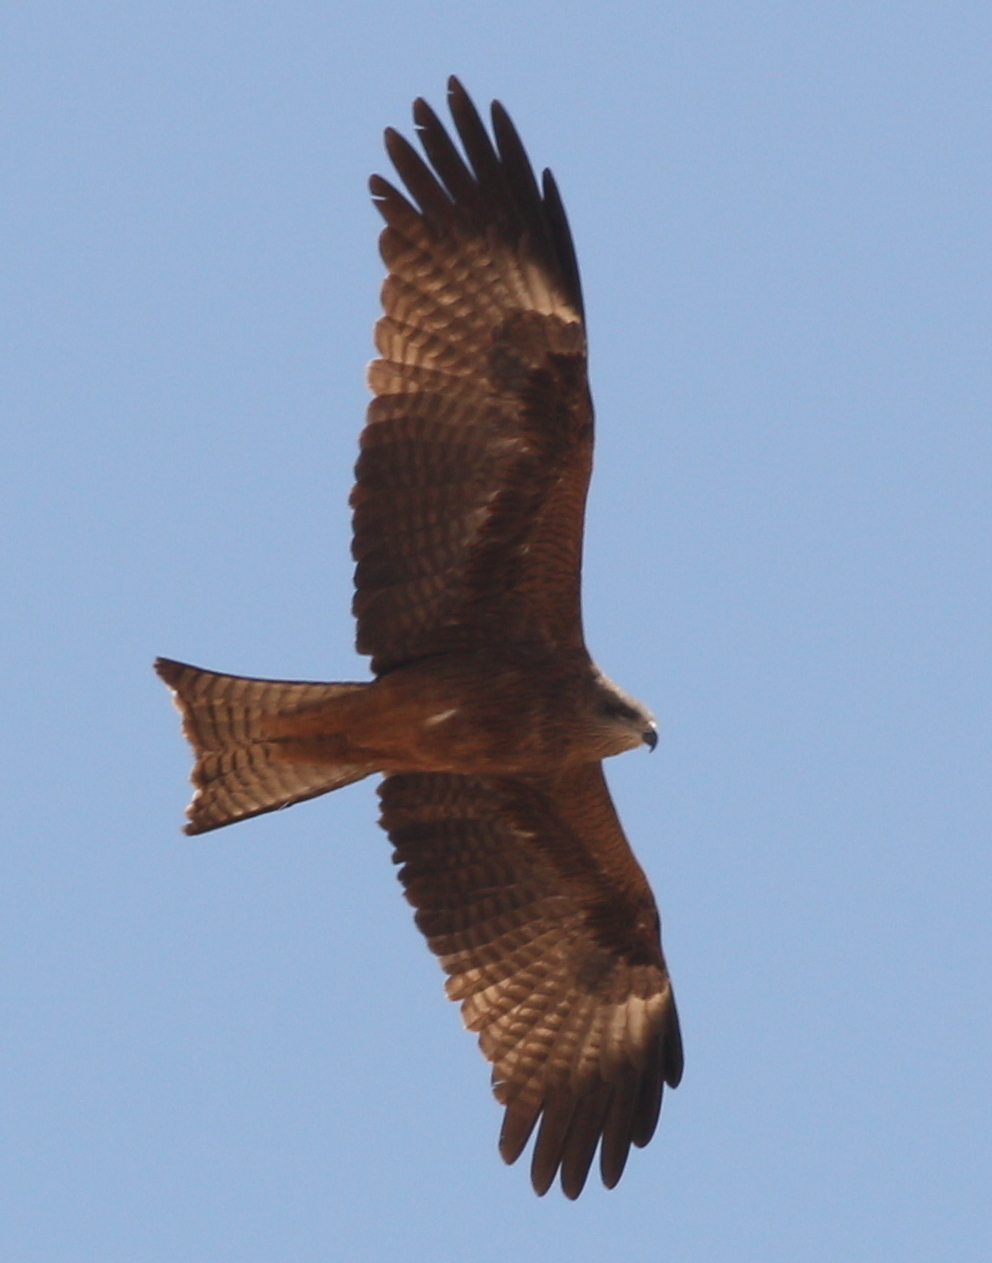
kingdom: Animalia
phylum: Chordata
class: Aves
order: Accipitriformes
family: Accipitridae
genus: Milvus
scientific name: Milvus migrans
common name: Black kite
